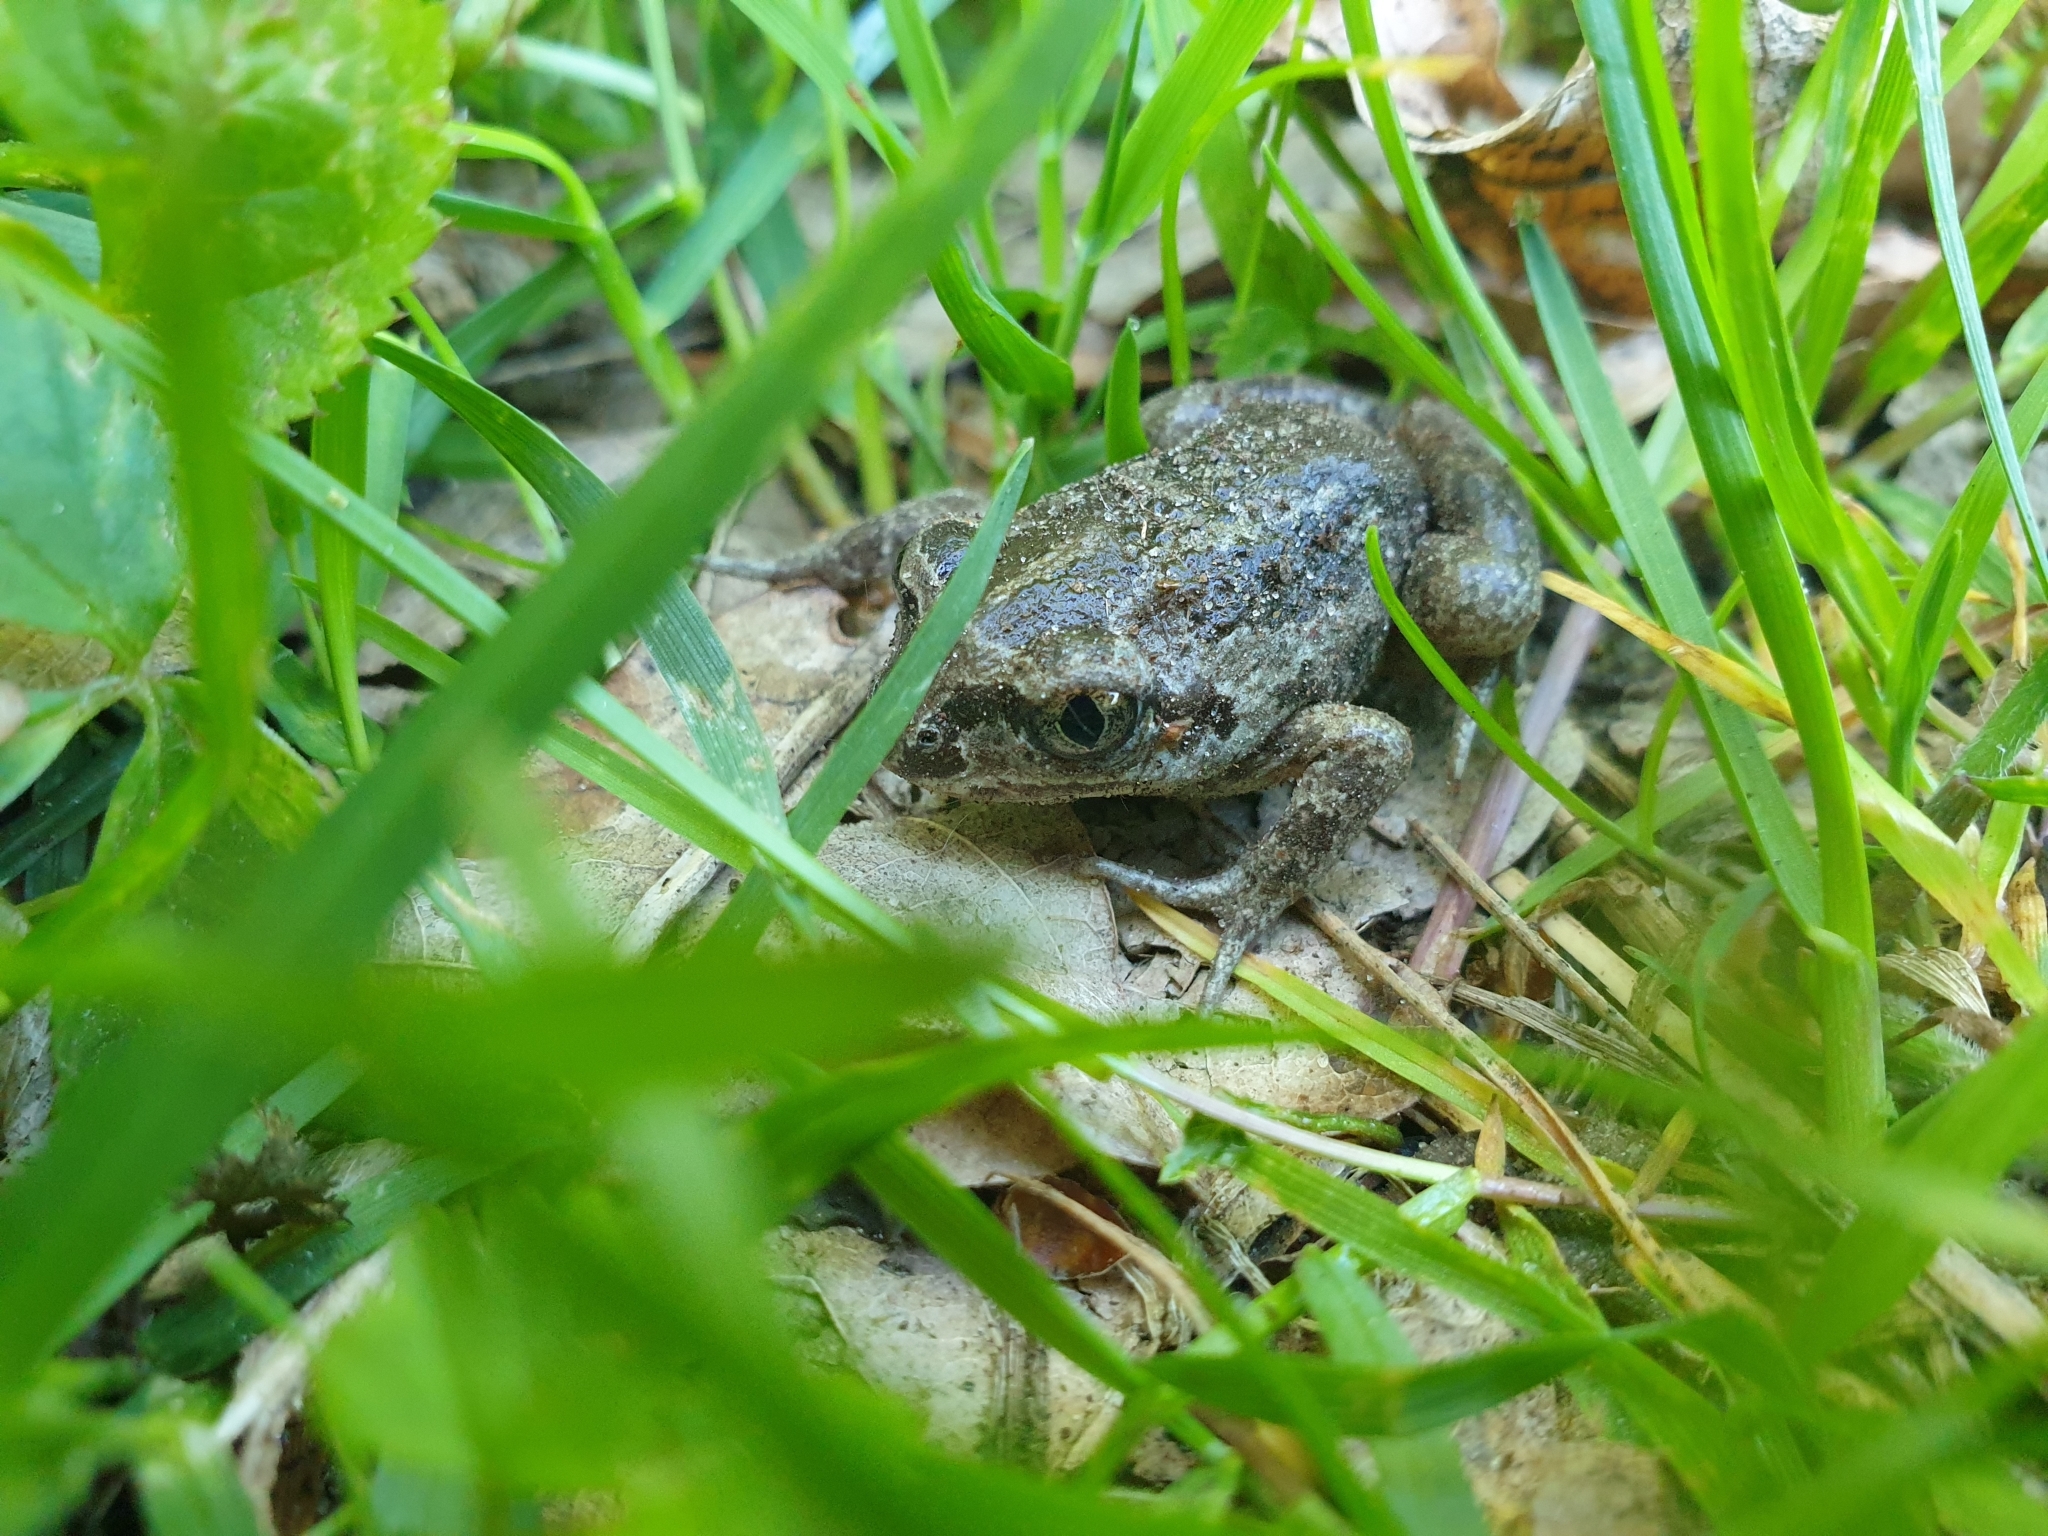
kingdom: Animalia
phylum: Chordata
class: Amphibia
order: Anura
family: Pelobatidae
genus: Pelobates
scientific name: Pelobates fuscus
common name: Common eurasian spadefoot toad
